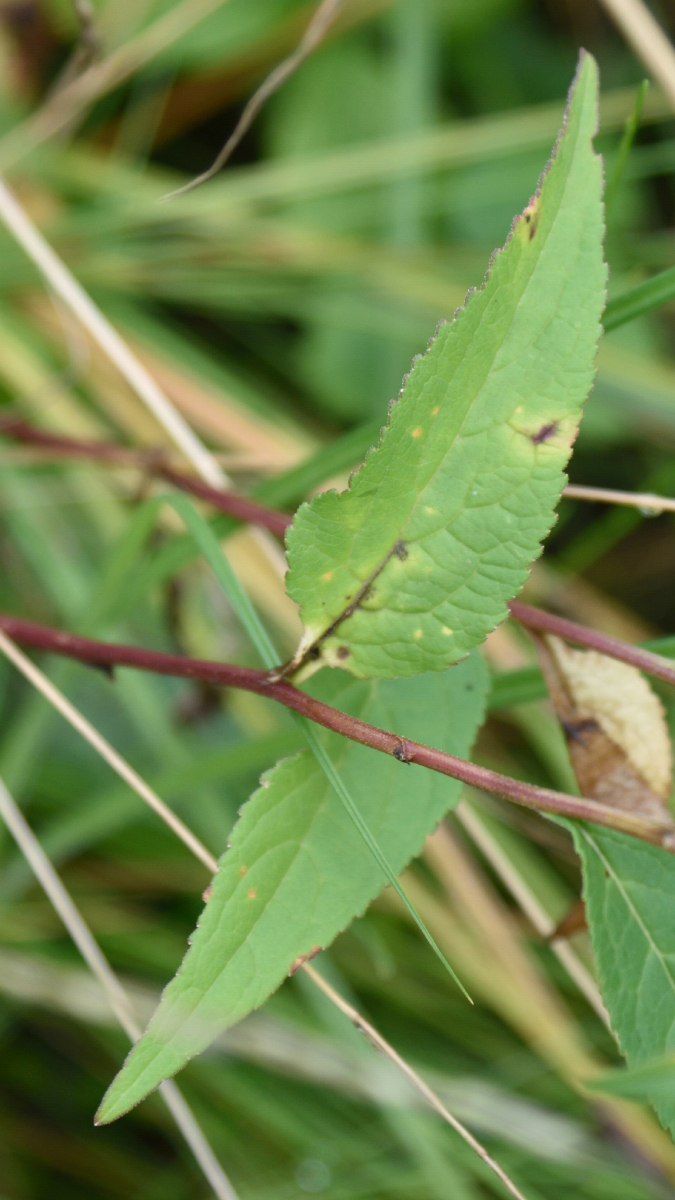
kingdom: Plantae
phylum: Tracheophyta
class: Magnoliopsida
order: Asterales
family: Campanulaceae
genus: Campanula
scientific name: Campanula rapunculoides
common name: Creeping bellflower
